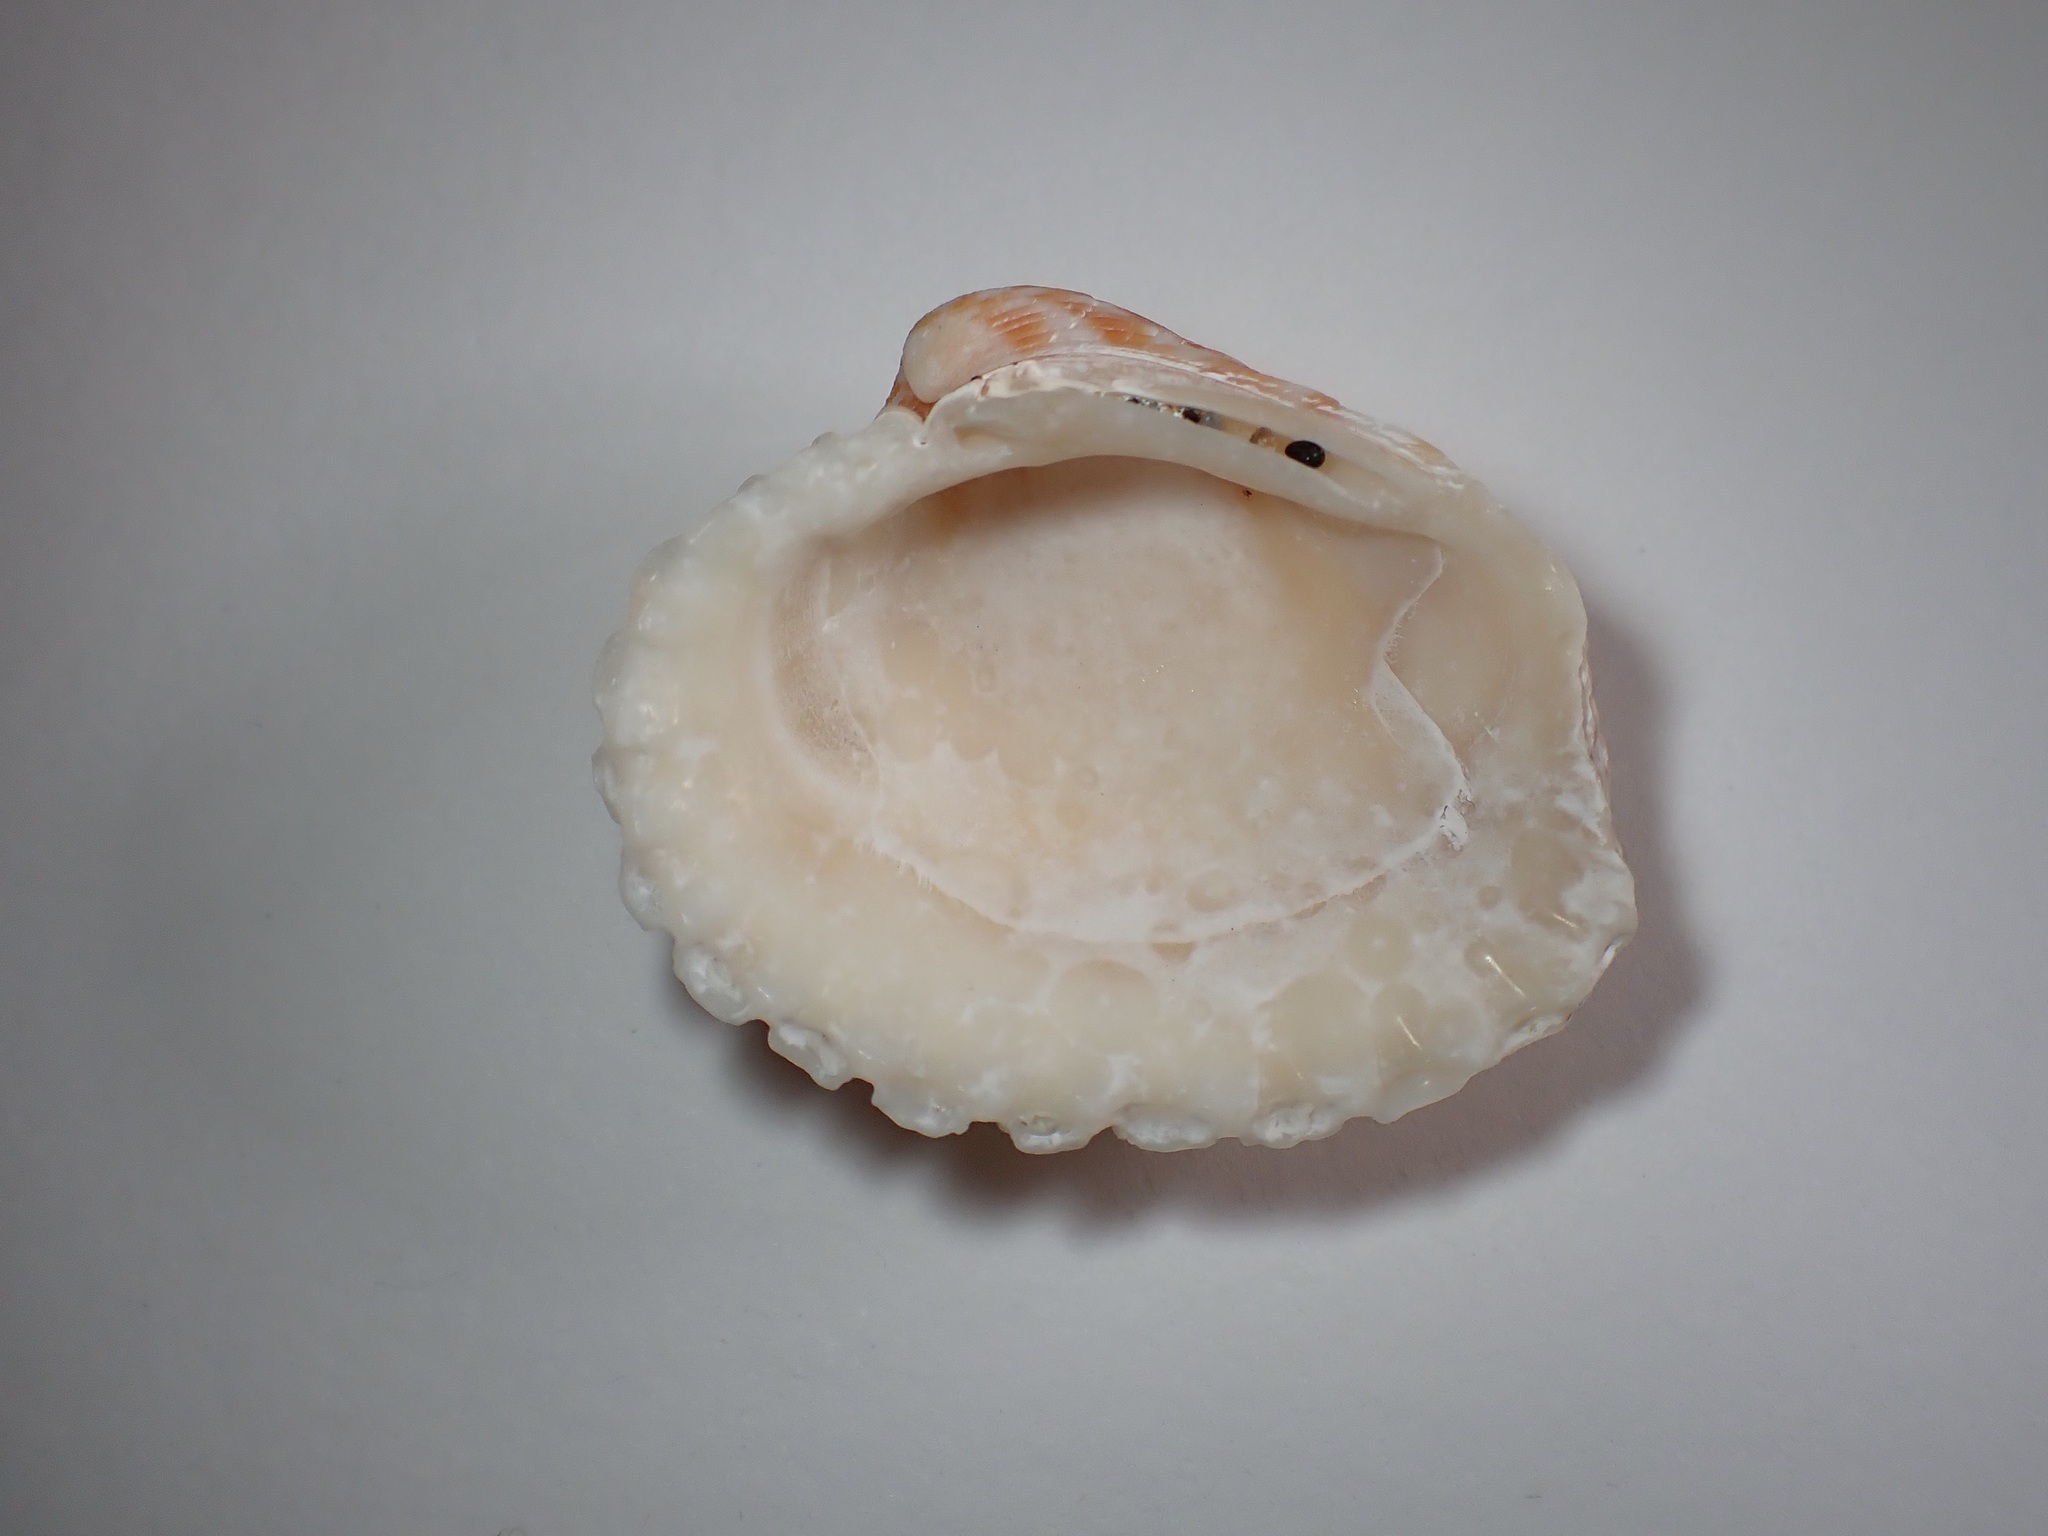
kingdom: Animalia
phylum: Mollusca
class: Bivalvia
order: Carditida
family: Carditidae
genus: Cardites
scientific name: Cardites bicolor
